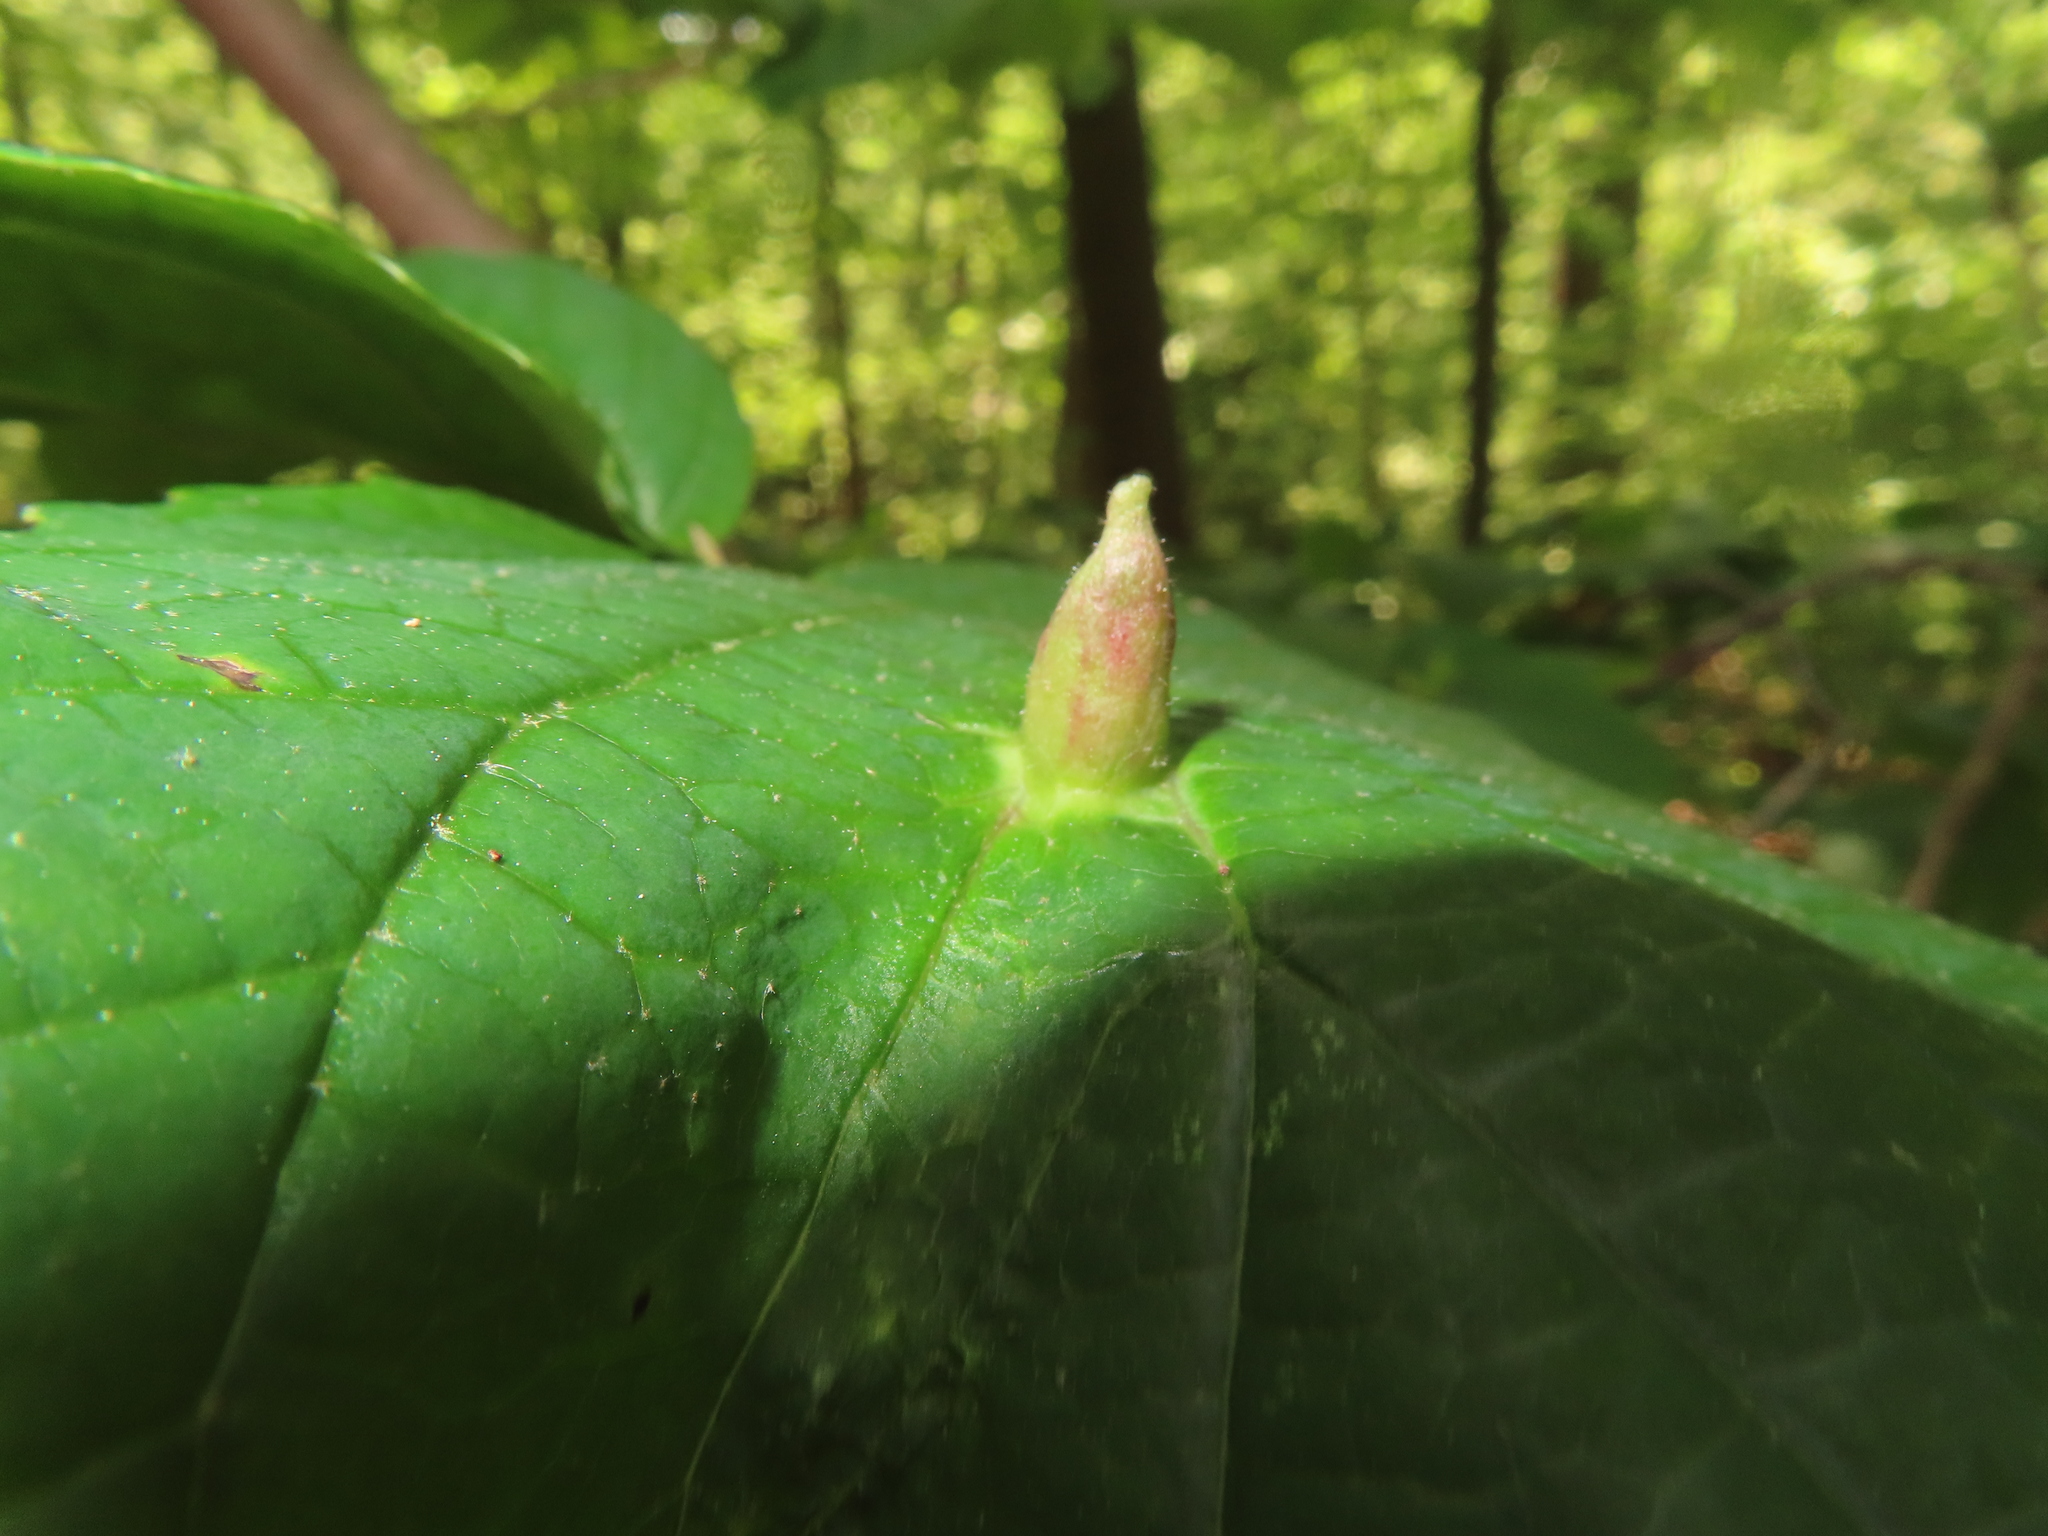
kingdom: Animalia
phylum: Arthropoda
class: Insecta
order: Hemiptera
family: Aphididae
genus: Hormaphis
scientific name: Hormaphis hamamelidis
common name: Witch-hazel cone gall aphid
